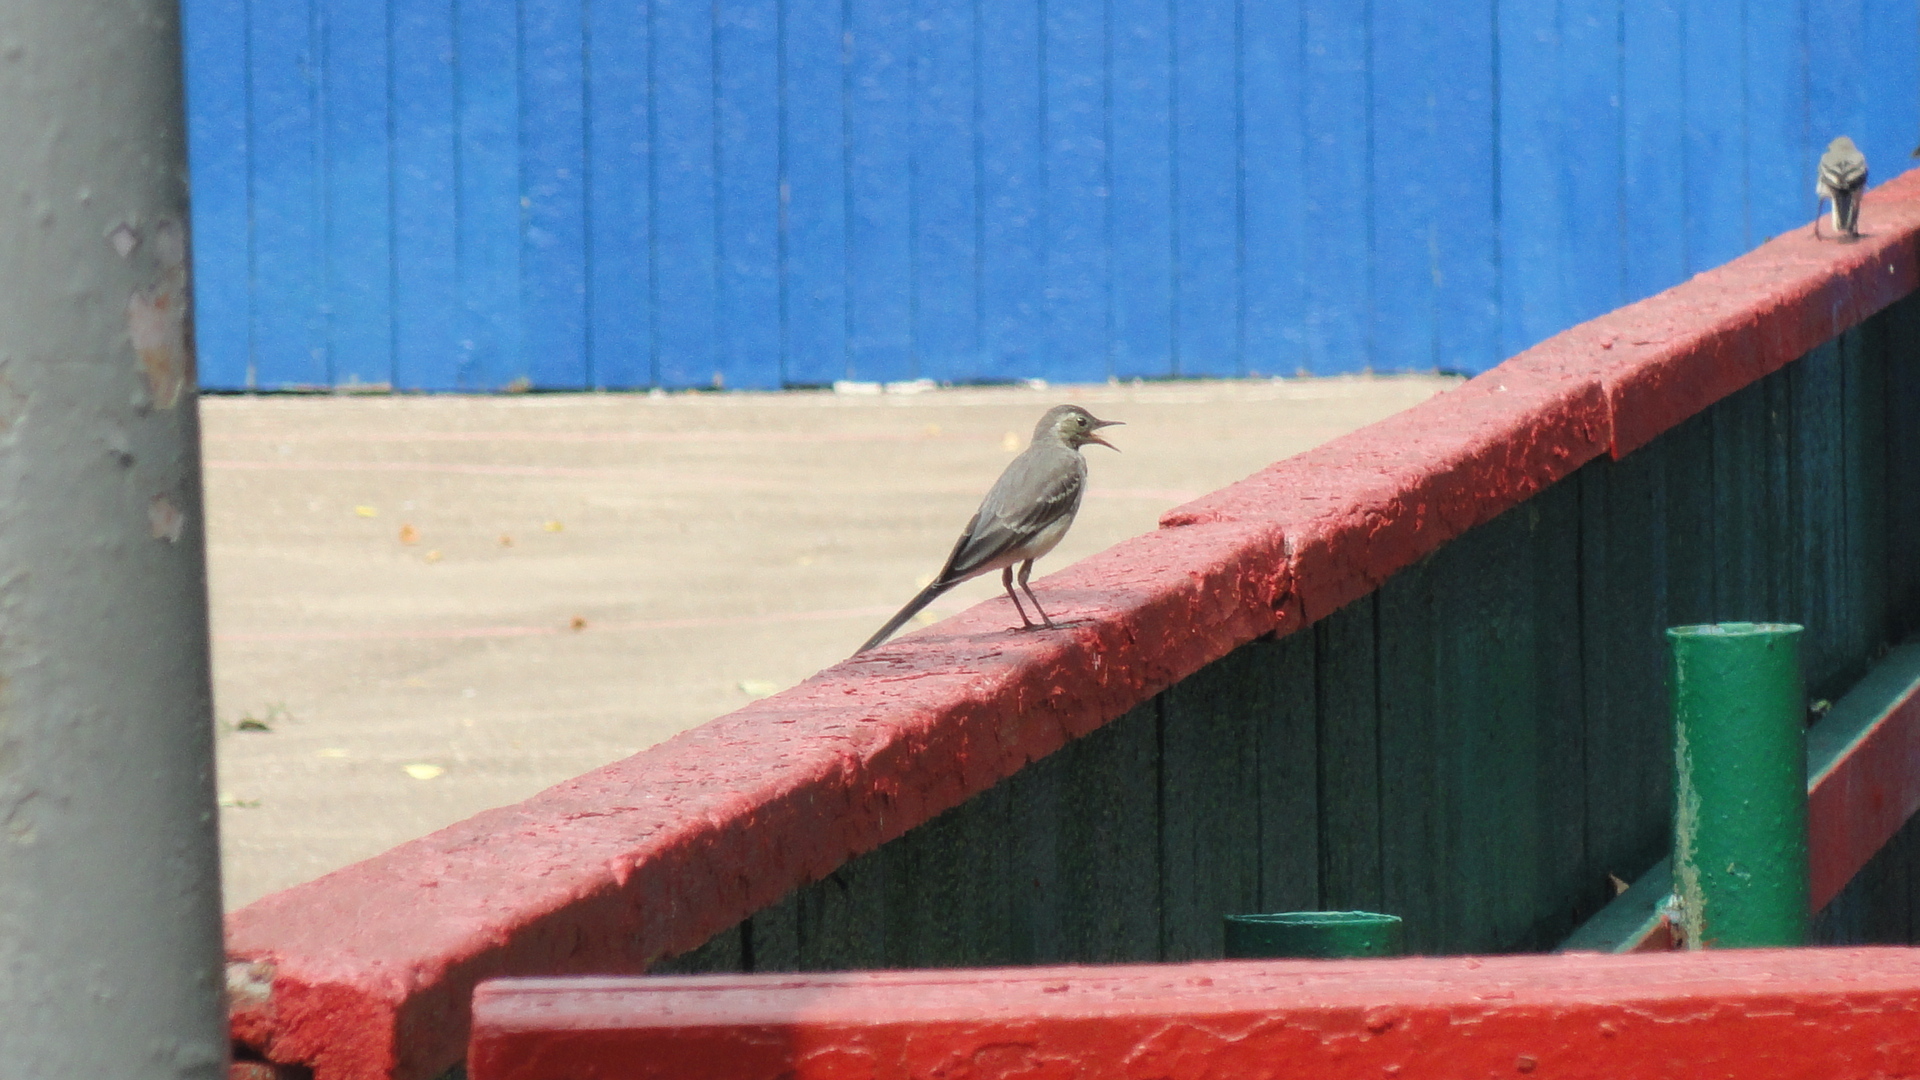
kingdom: Animalia
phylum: Chordata
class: Aves
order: Passeriformes
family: Motacillidae
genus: Motacilla
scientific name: Motacilla alba
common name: White wagtail
